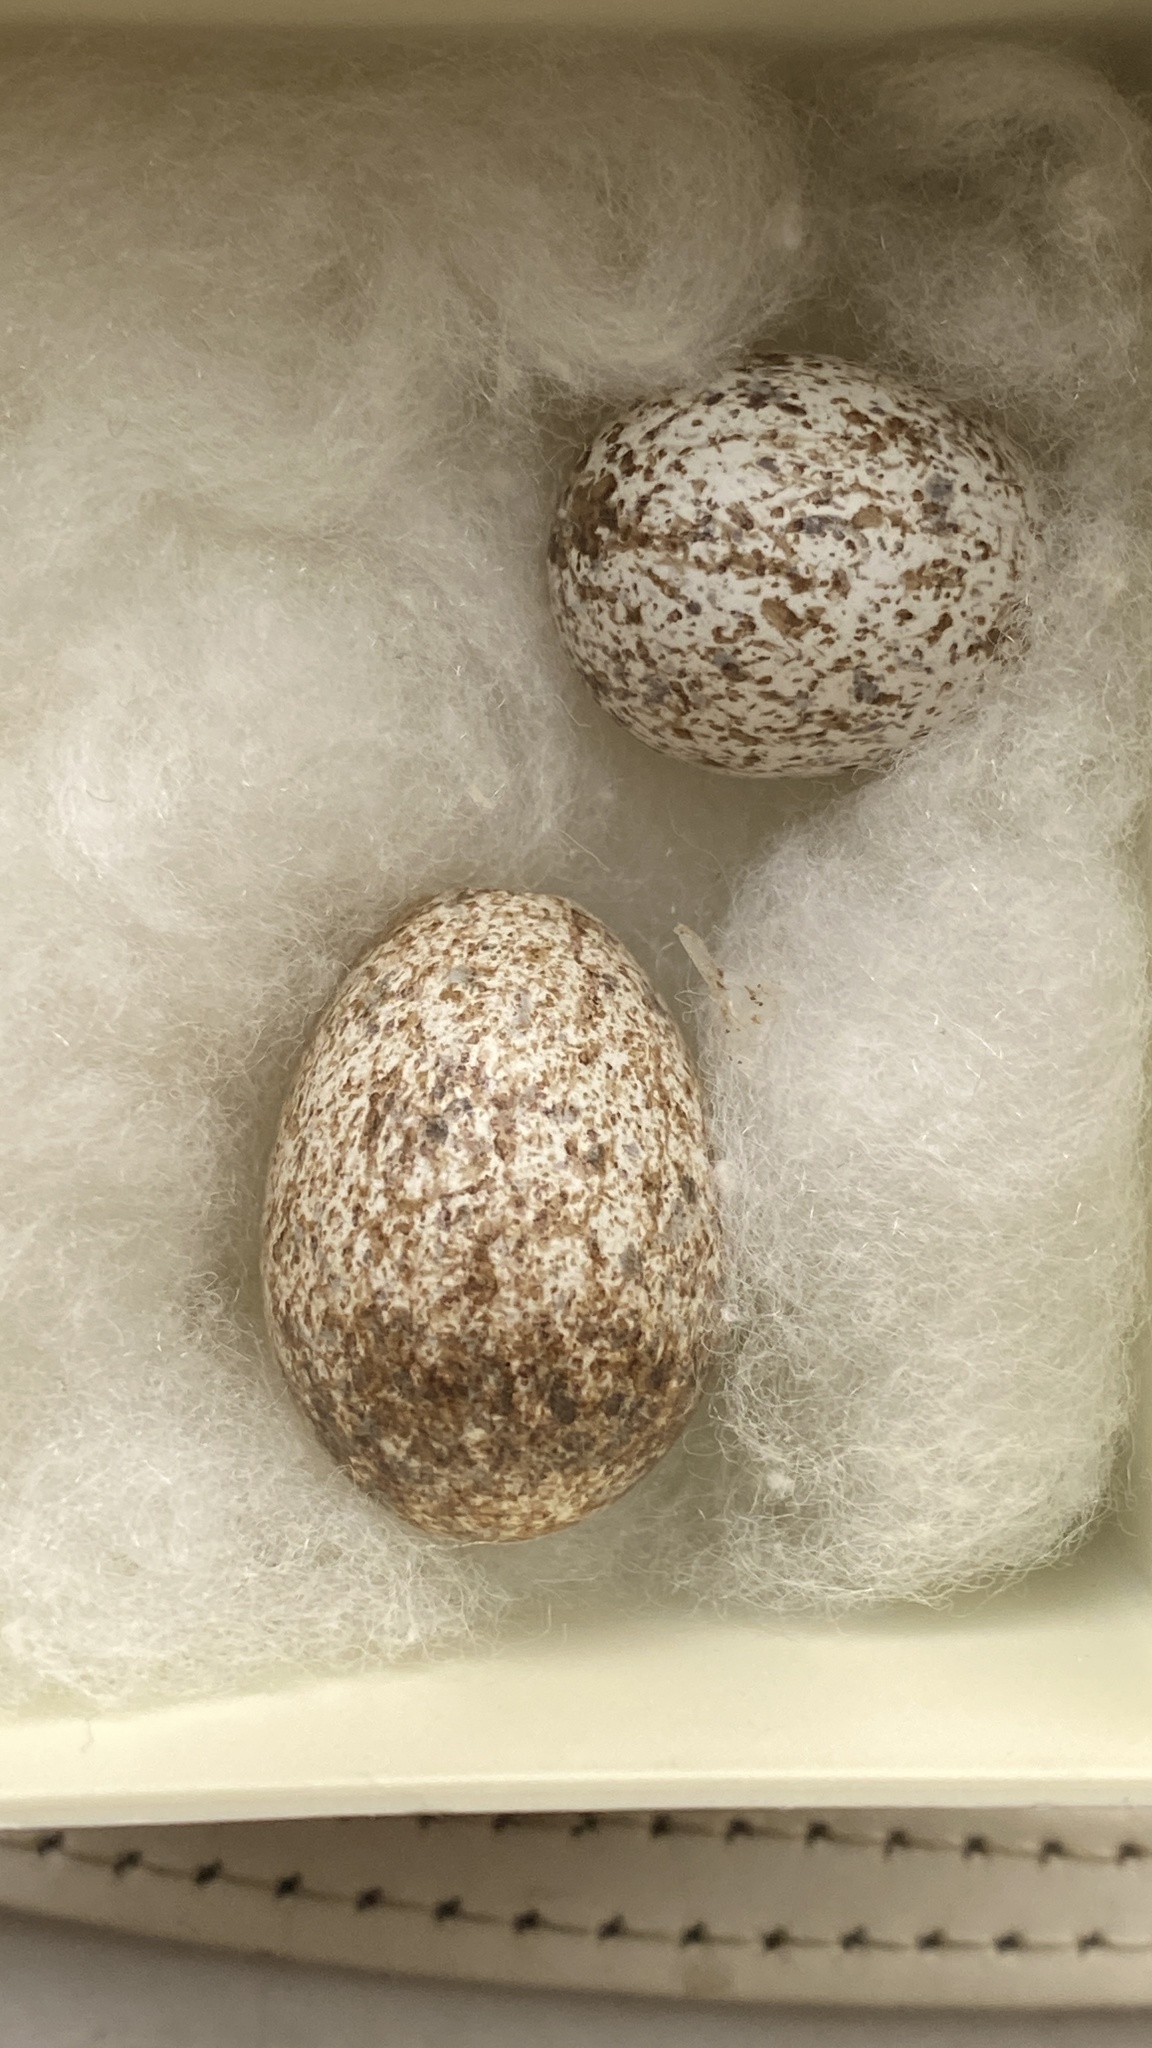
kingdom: Animalia
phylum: Chordata
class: Aves
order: Passeriformes
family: Icteridae
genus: Molothrus
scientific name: Molothrus ater
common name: Brown-headed cowbird
